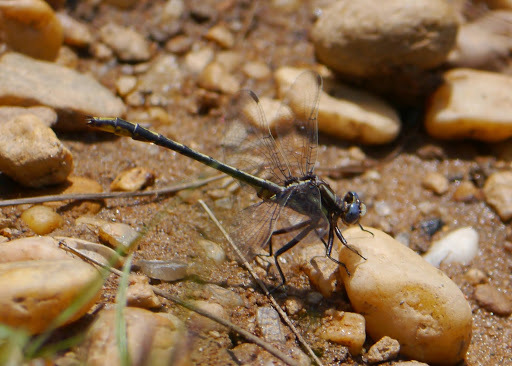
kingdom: Animalia
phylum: Arthropoda
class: Insecta
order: Odonata
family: Gomphidae
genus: Phanogomphus
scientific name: Phanogomphus exilis
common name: Lancet clubtail
